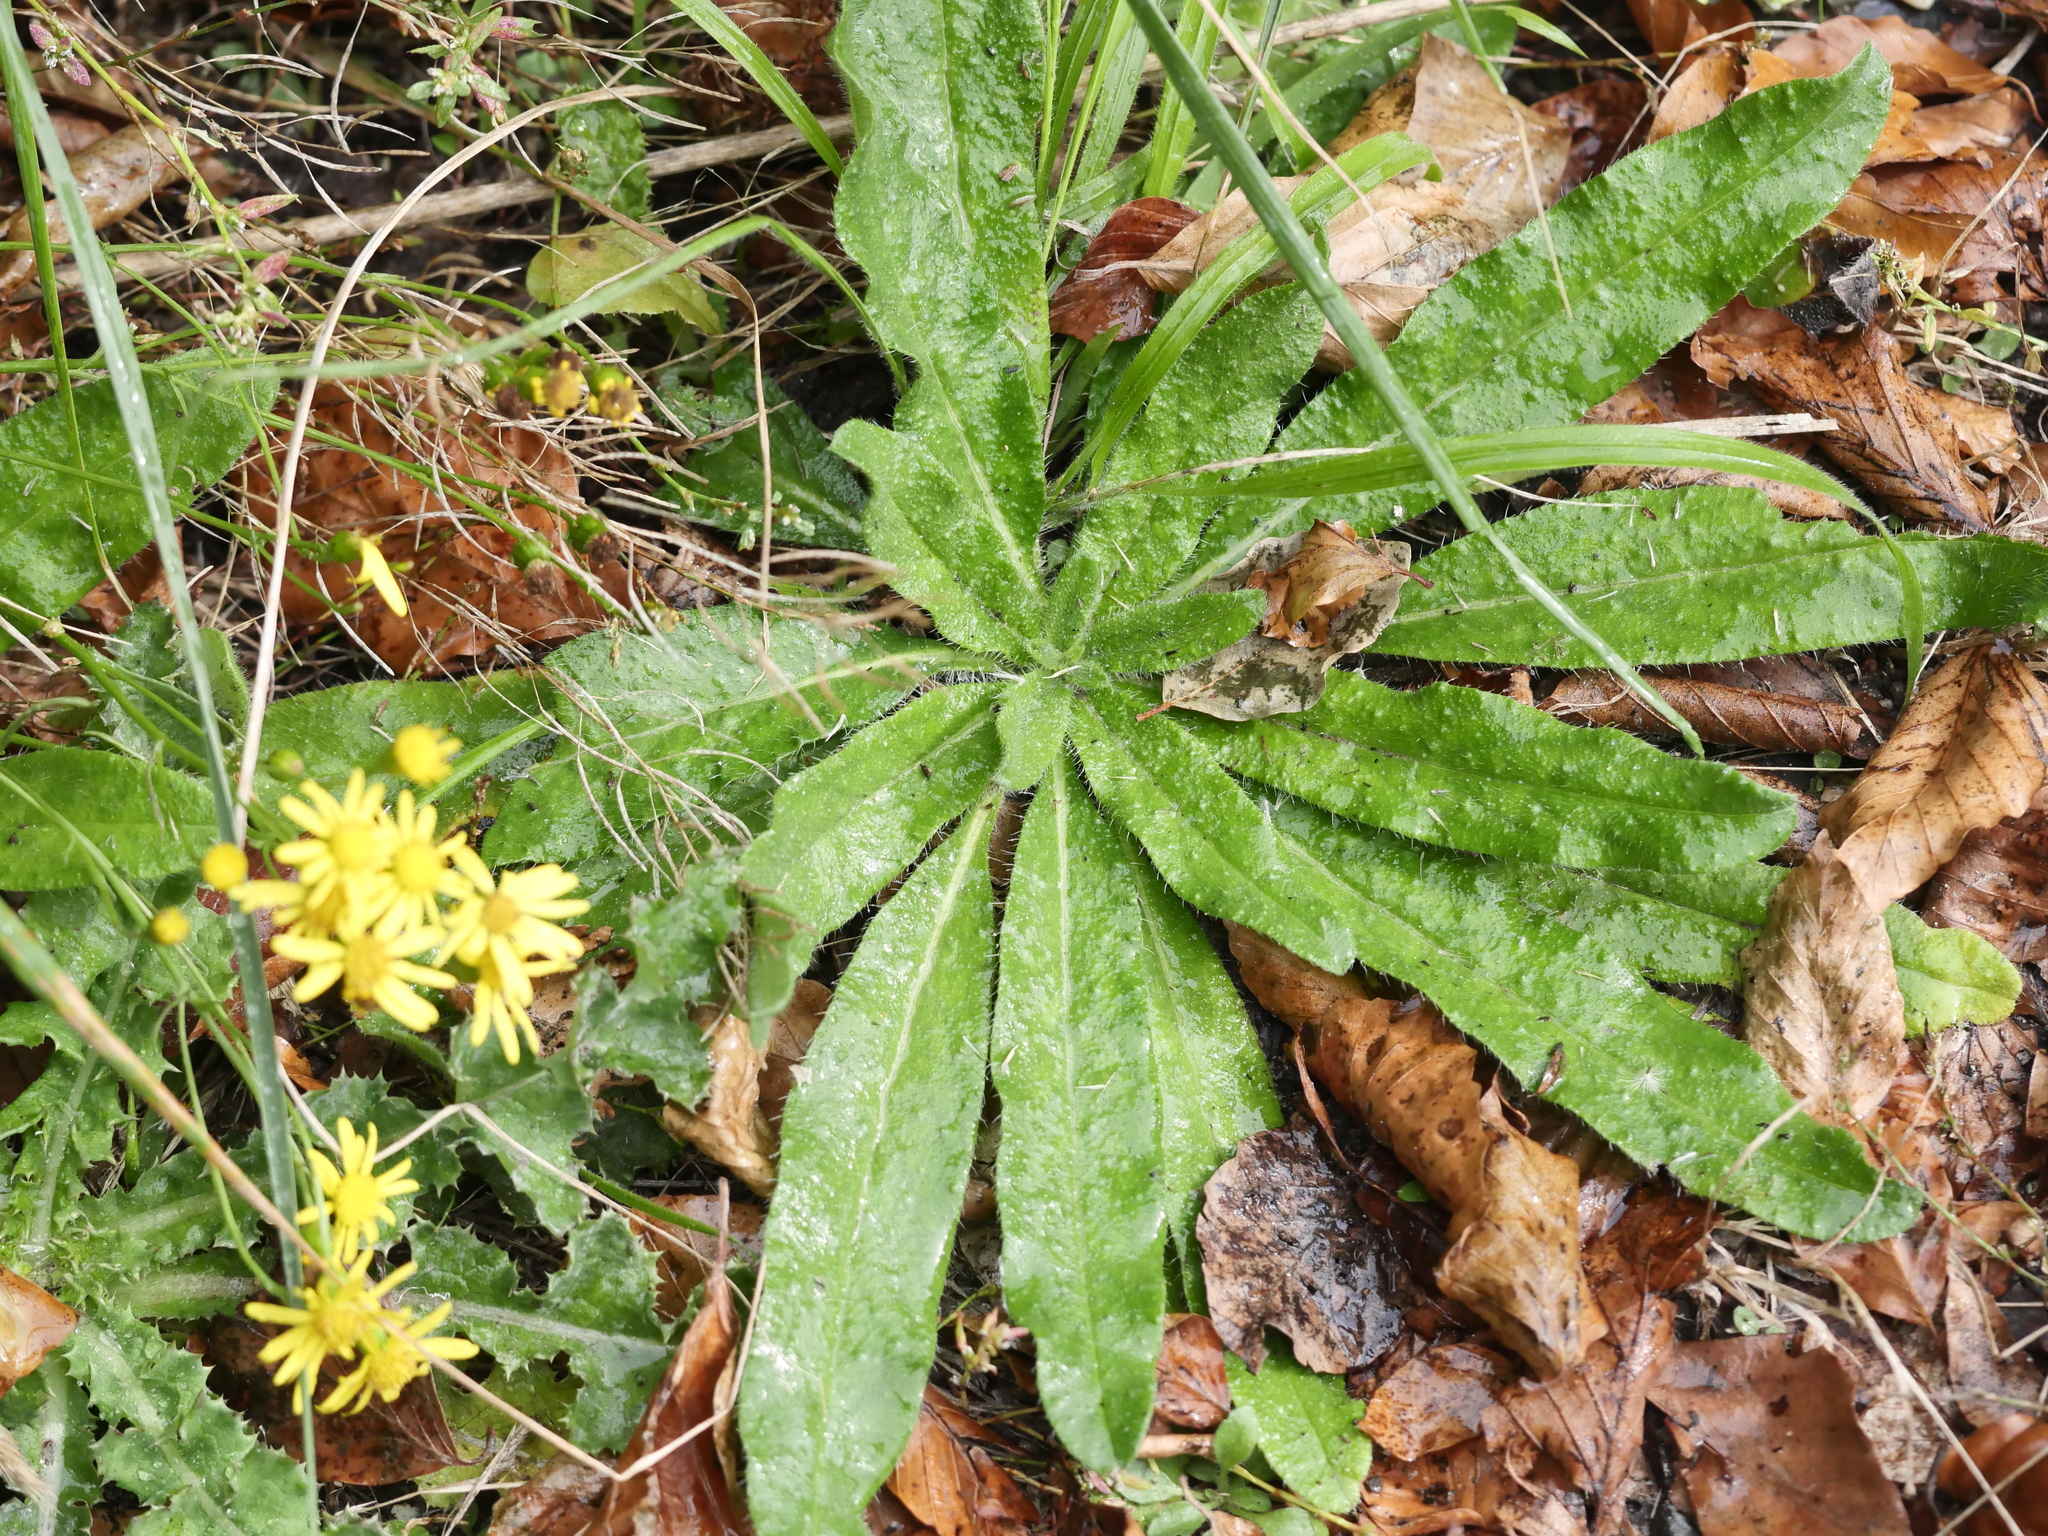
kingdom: Plantae
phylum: Tracheophyta
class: Magnoliopsida
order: Boraginales
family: Boraginaceae
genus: Echium
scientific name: Echium vulgare
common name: Common viper's bugloss
